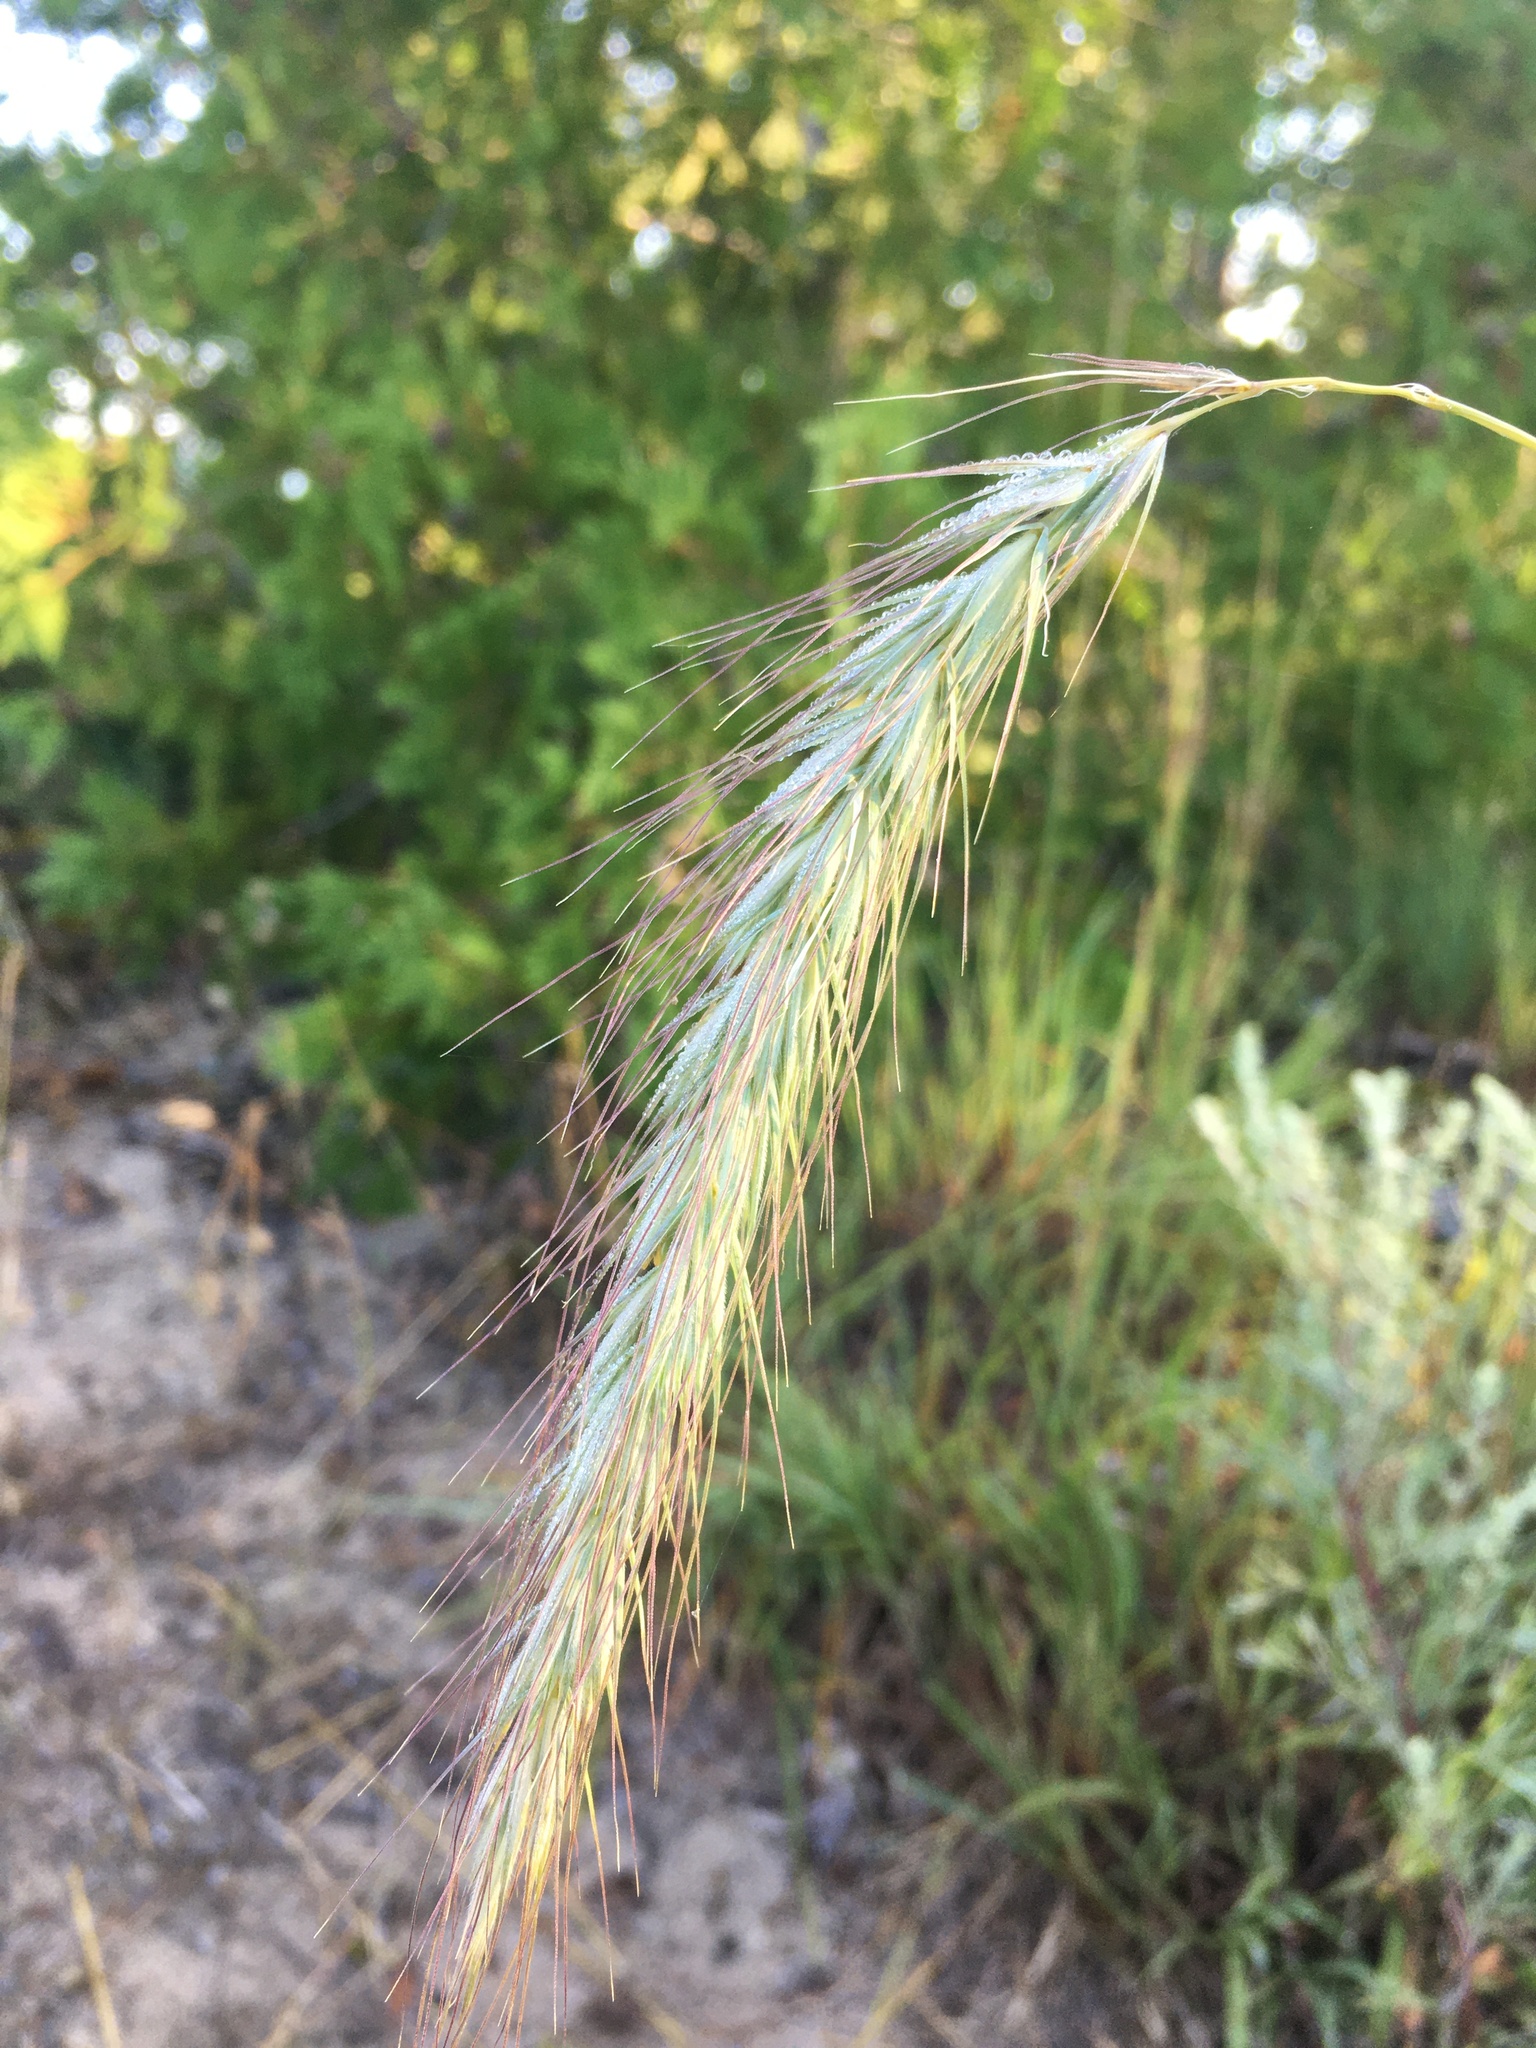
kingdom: Plantae
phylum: Tracheophyta
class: Liliopsida
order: Poales
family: Poaceae
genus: Elymus
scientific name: Elymus canadensis
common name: Canada wild rye
